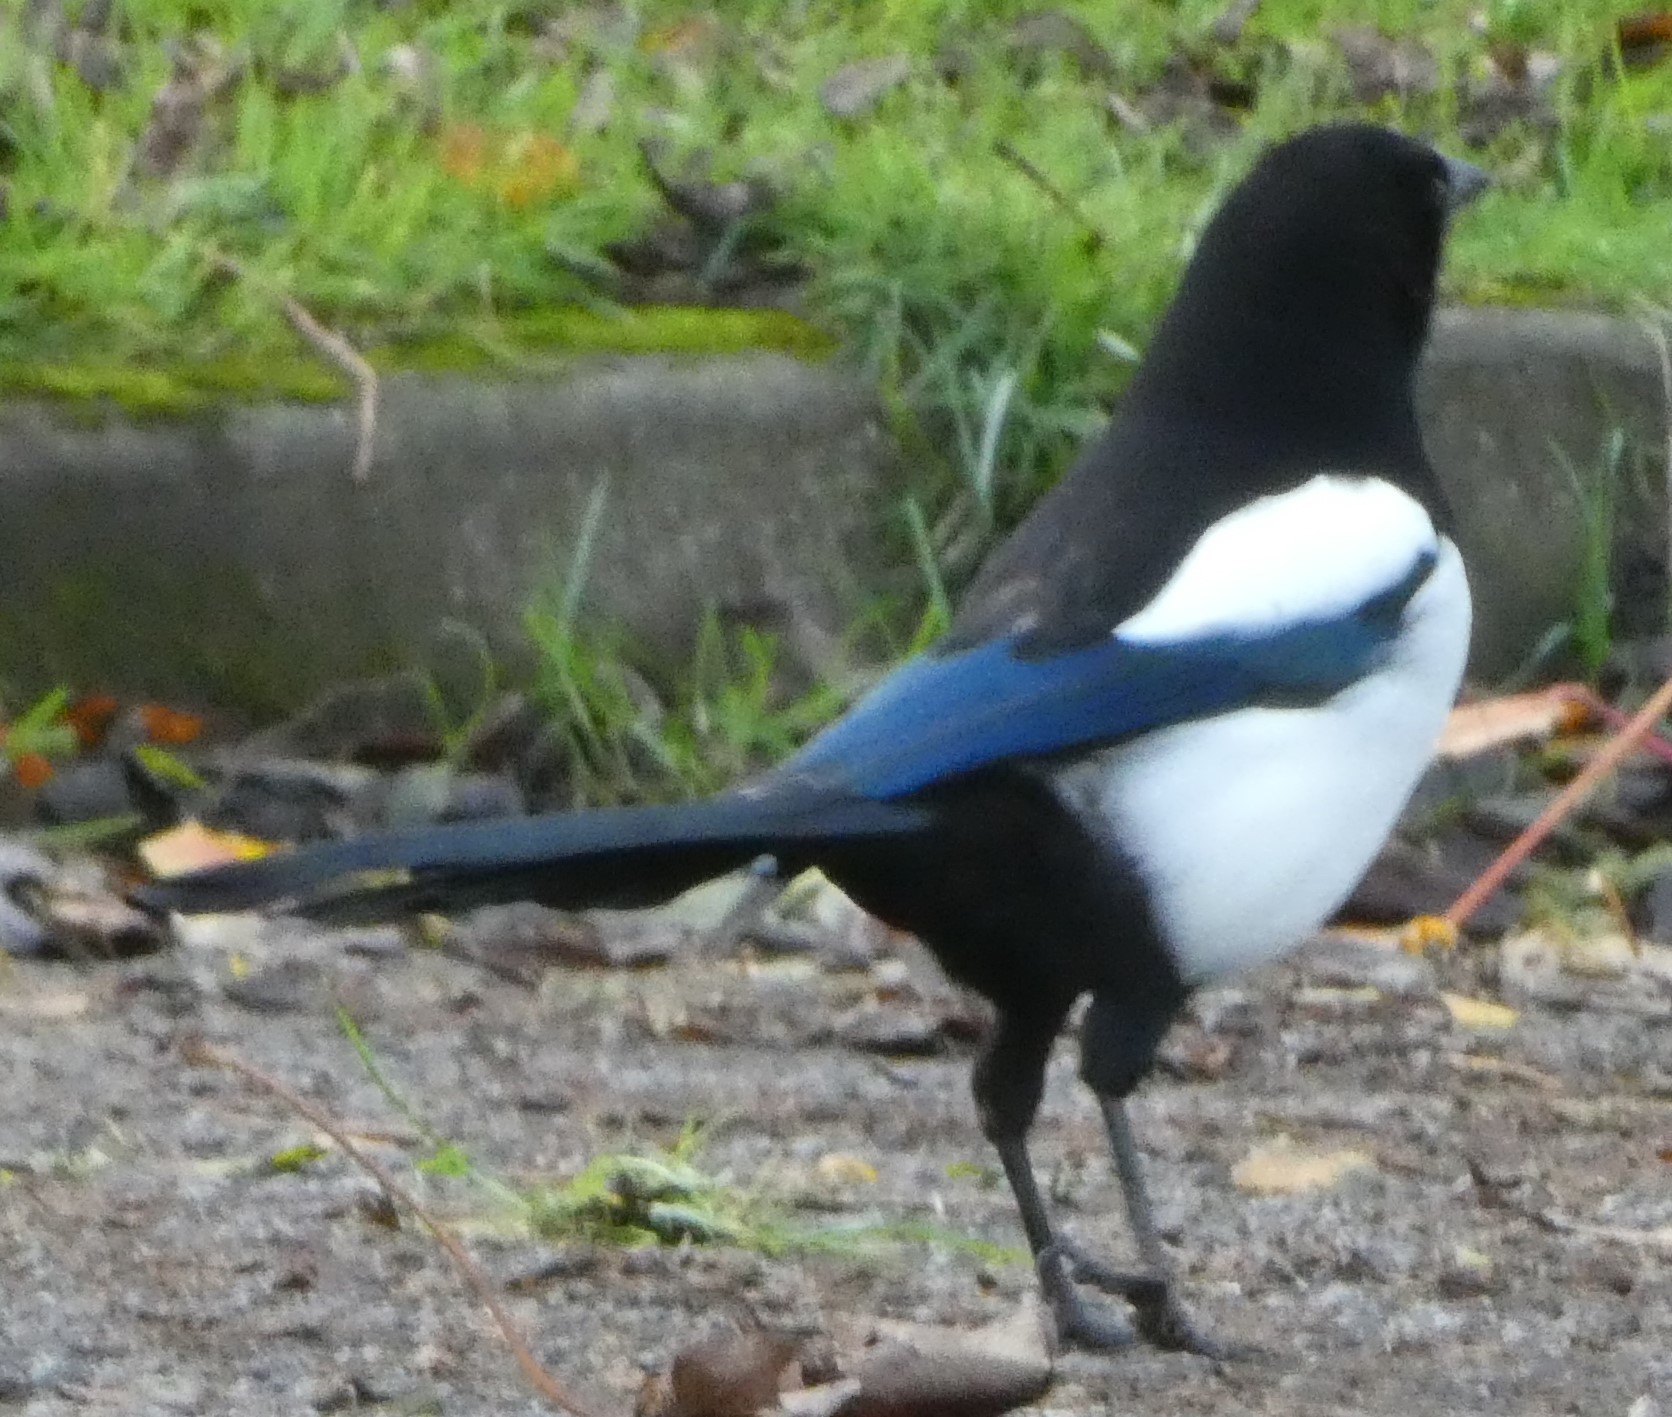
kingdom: Animalia
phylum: Chordata
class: Aves
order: Passeriformes
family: Corvidae
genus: Pica
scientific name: Pica pica
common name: Eurasian magpie
